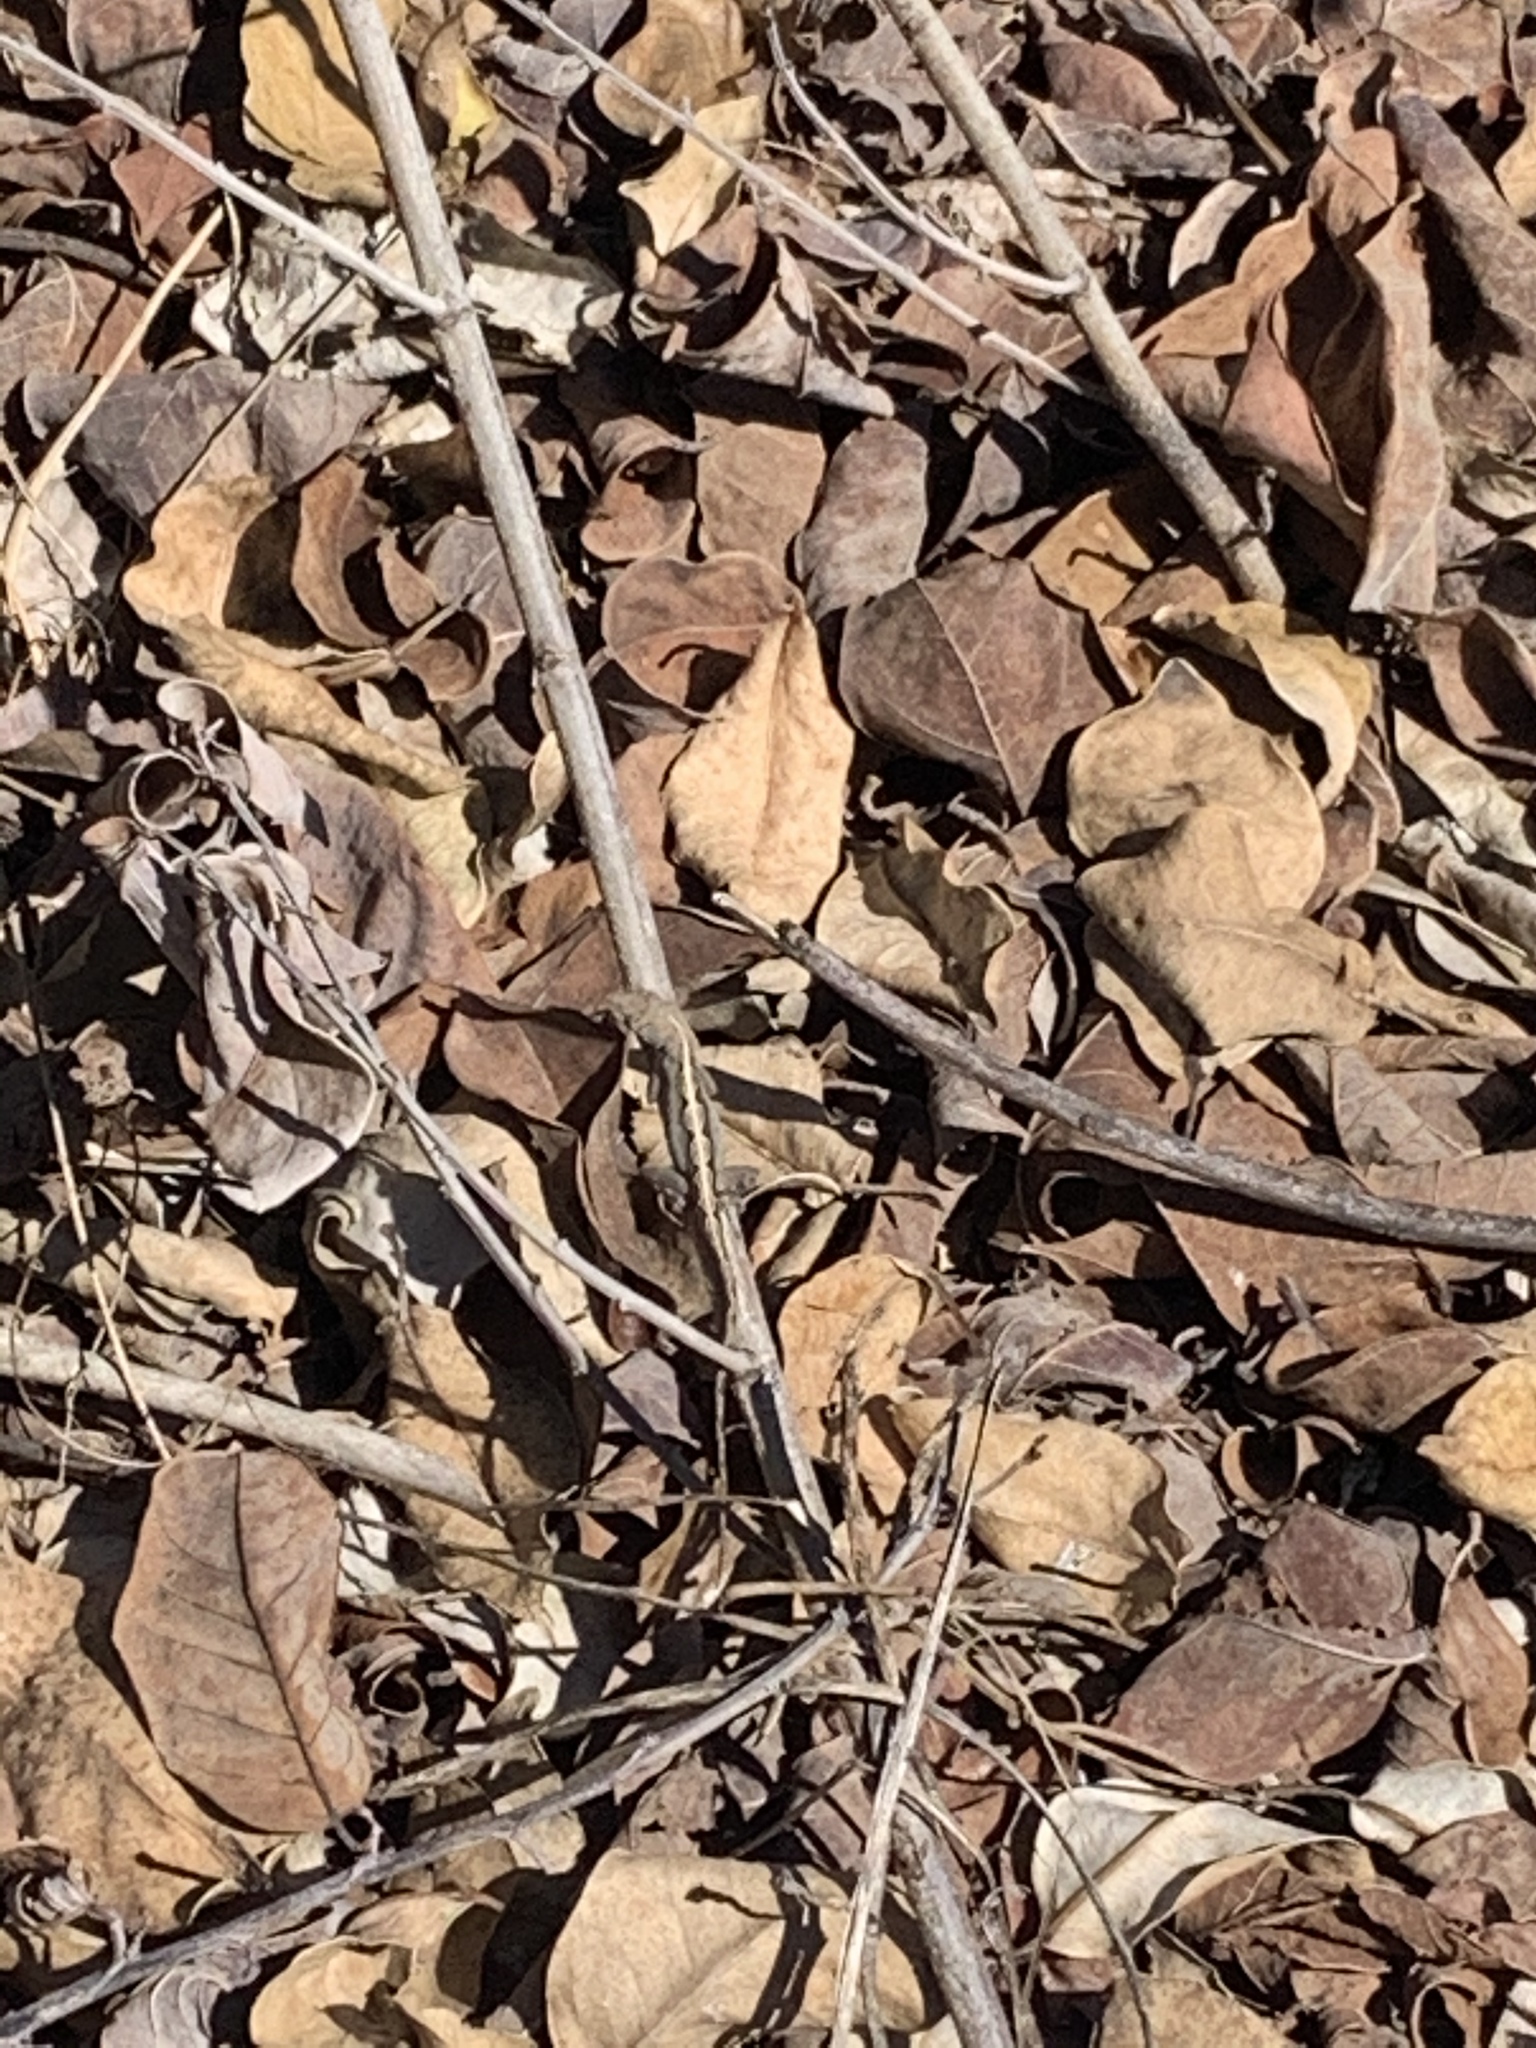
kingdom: Animalia
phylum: Chordata
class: Squamata
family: Dactyloidae
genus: Anolis
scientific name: Anolis sagrei
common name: Brown anole
